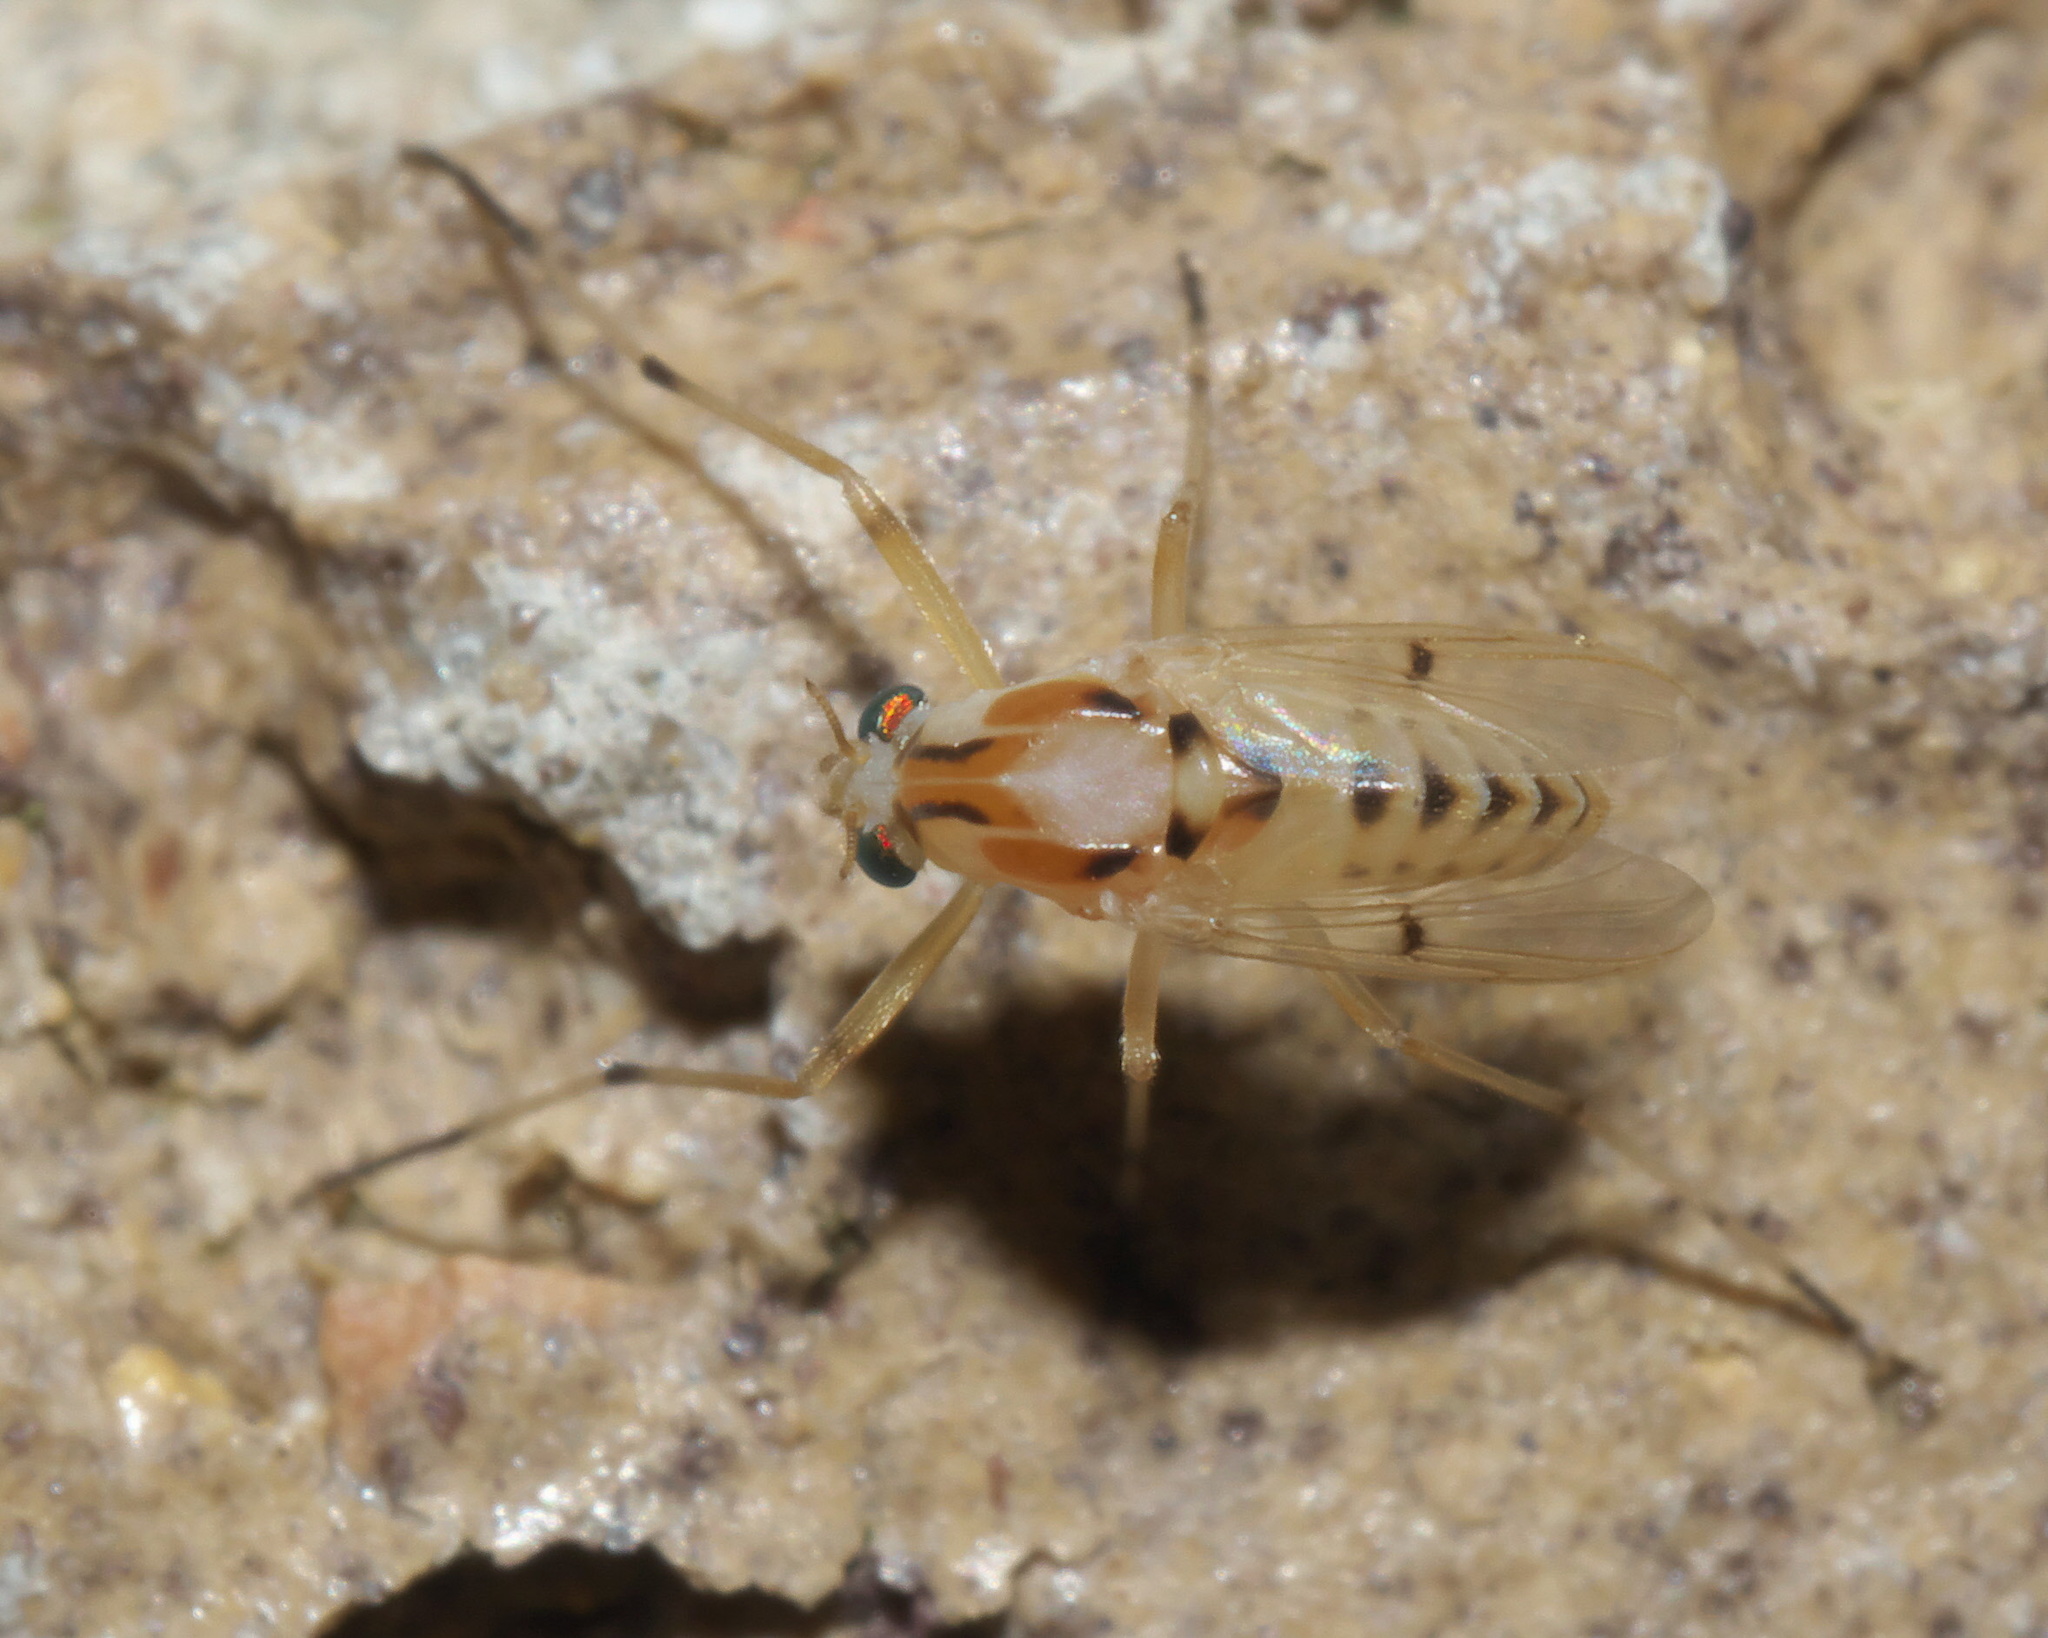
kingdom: Animalia
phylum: Arthropoda
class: Insecta
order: Diptera
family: Chironomidae
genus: Coelotanypus
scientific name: Coelotanypus concinnus
